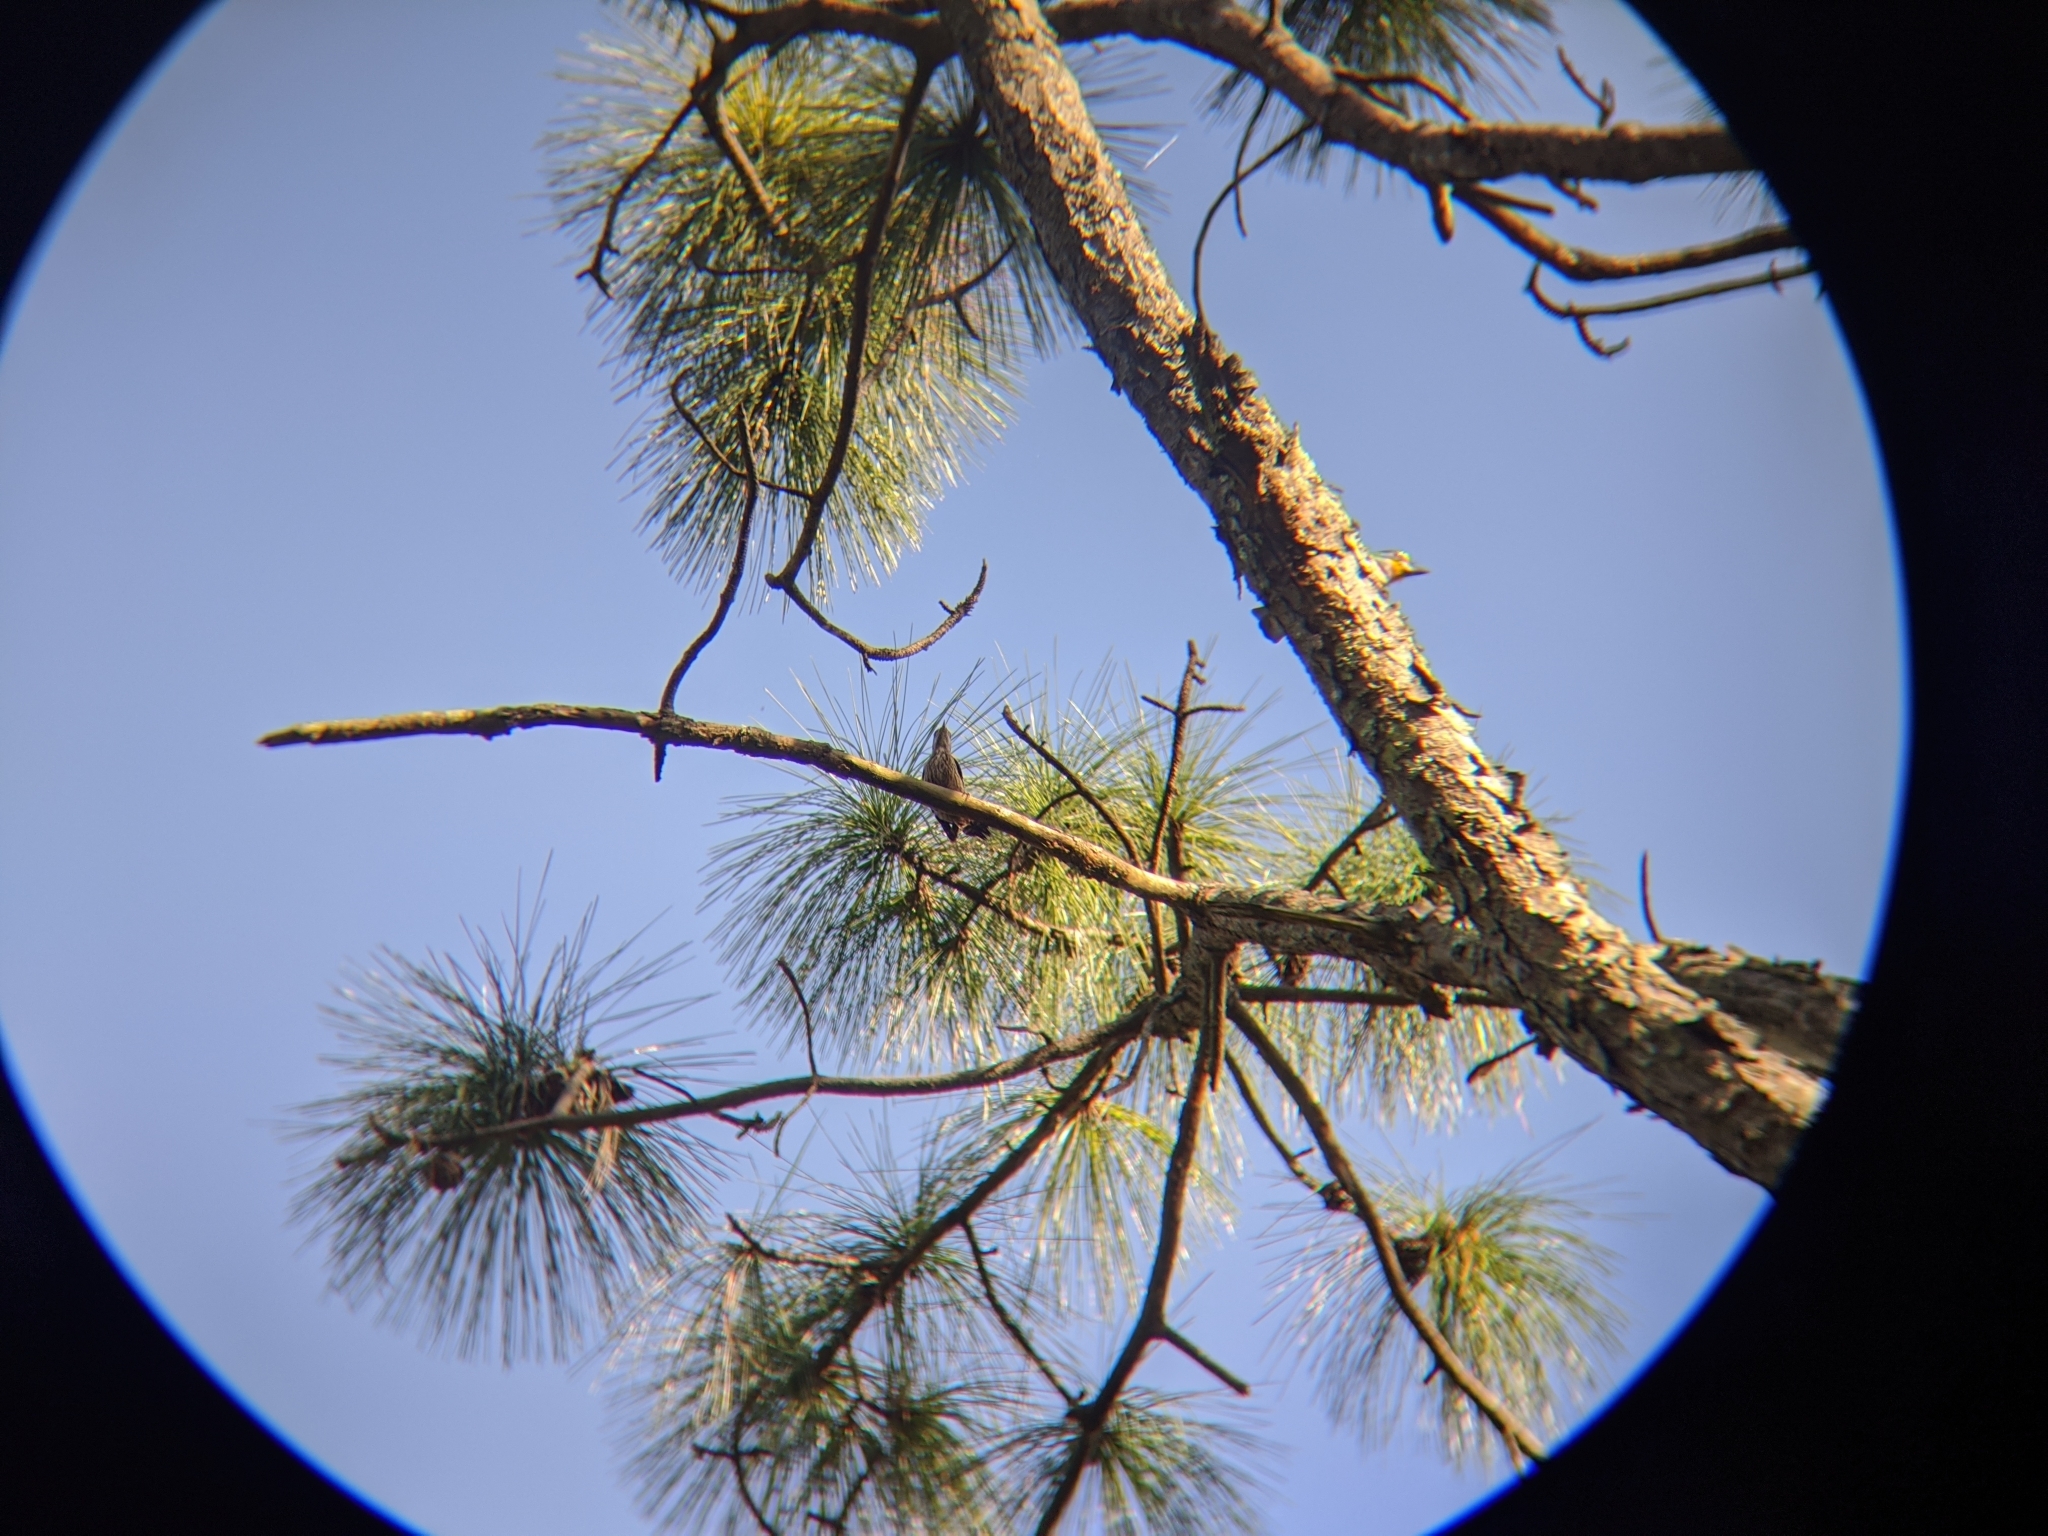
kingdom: Animalia
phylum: Chordata
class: Aves
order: Piciformes
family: Picidae
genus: Yungipicus
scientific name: Yungipicus canicapillus
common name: Grey-capped pygmy woodpecker
